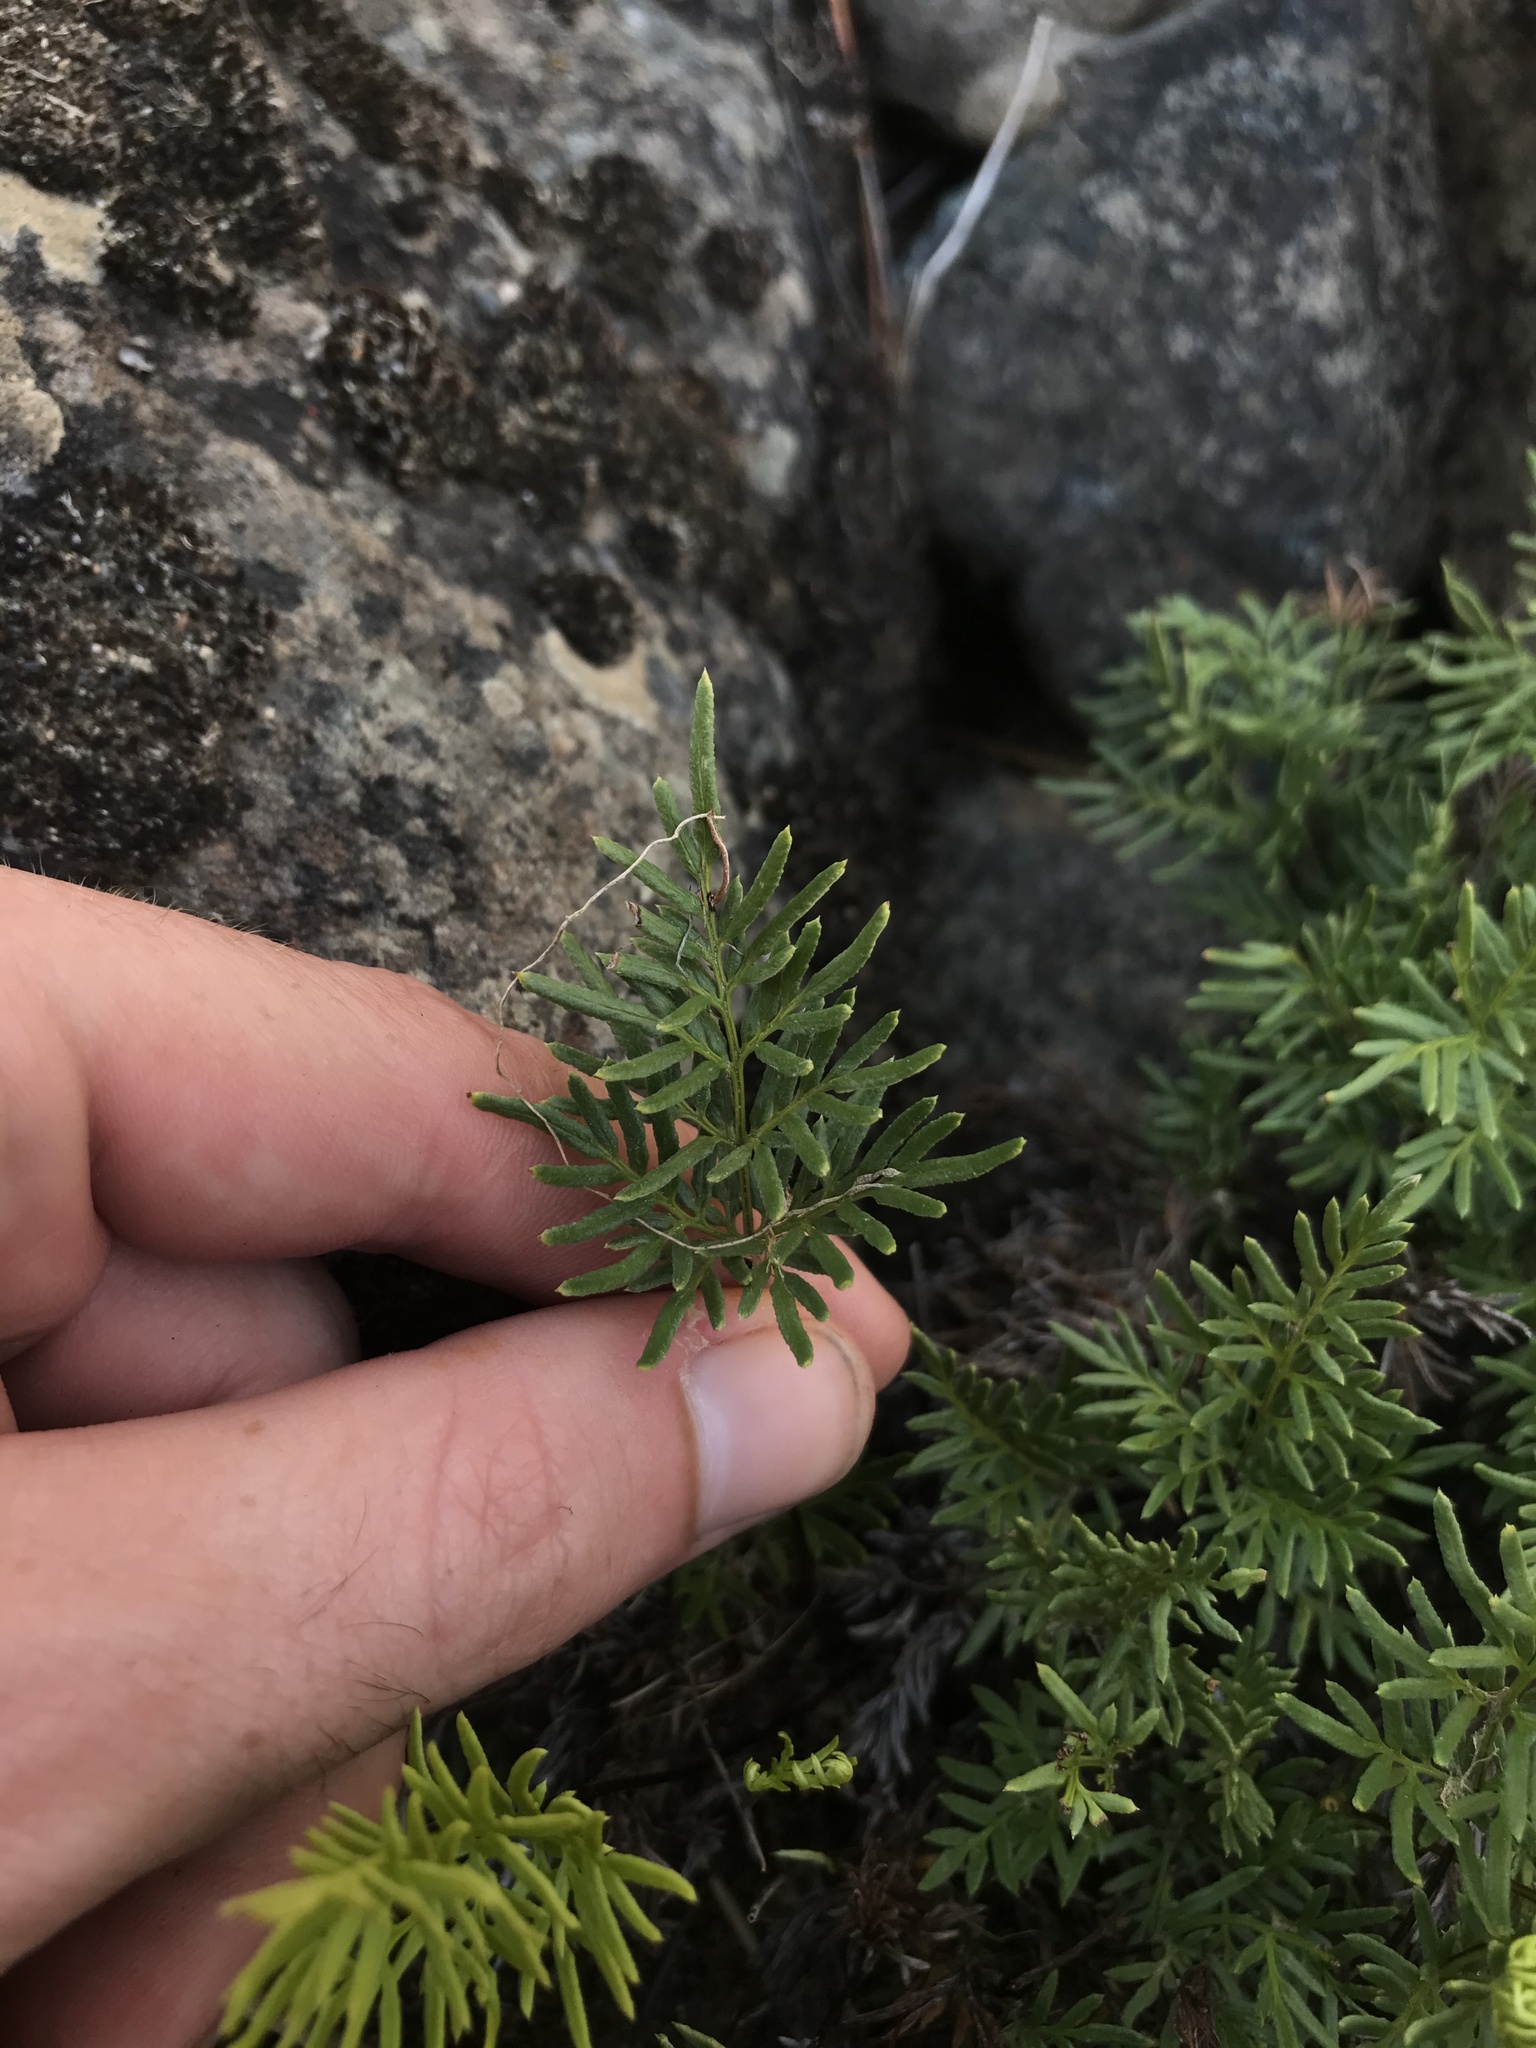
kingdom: Plantae
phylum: Tracheophyta
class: Polypodiopsida
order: Polypodiales
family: Pteridaceae
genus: Aspidotis
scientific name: Aspidotis densa
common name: Indian's dream
